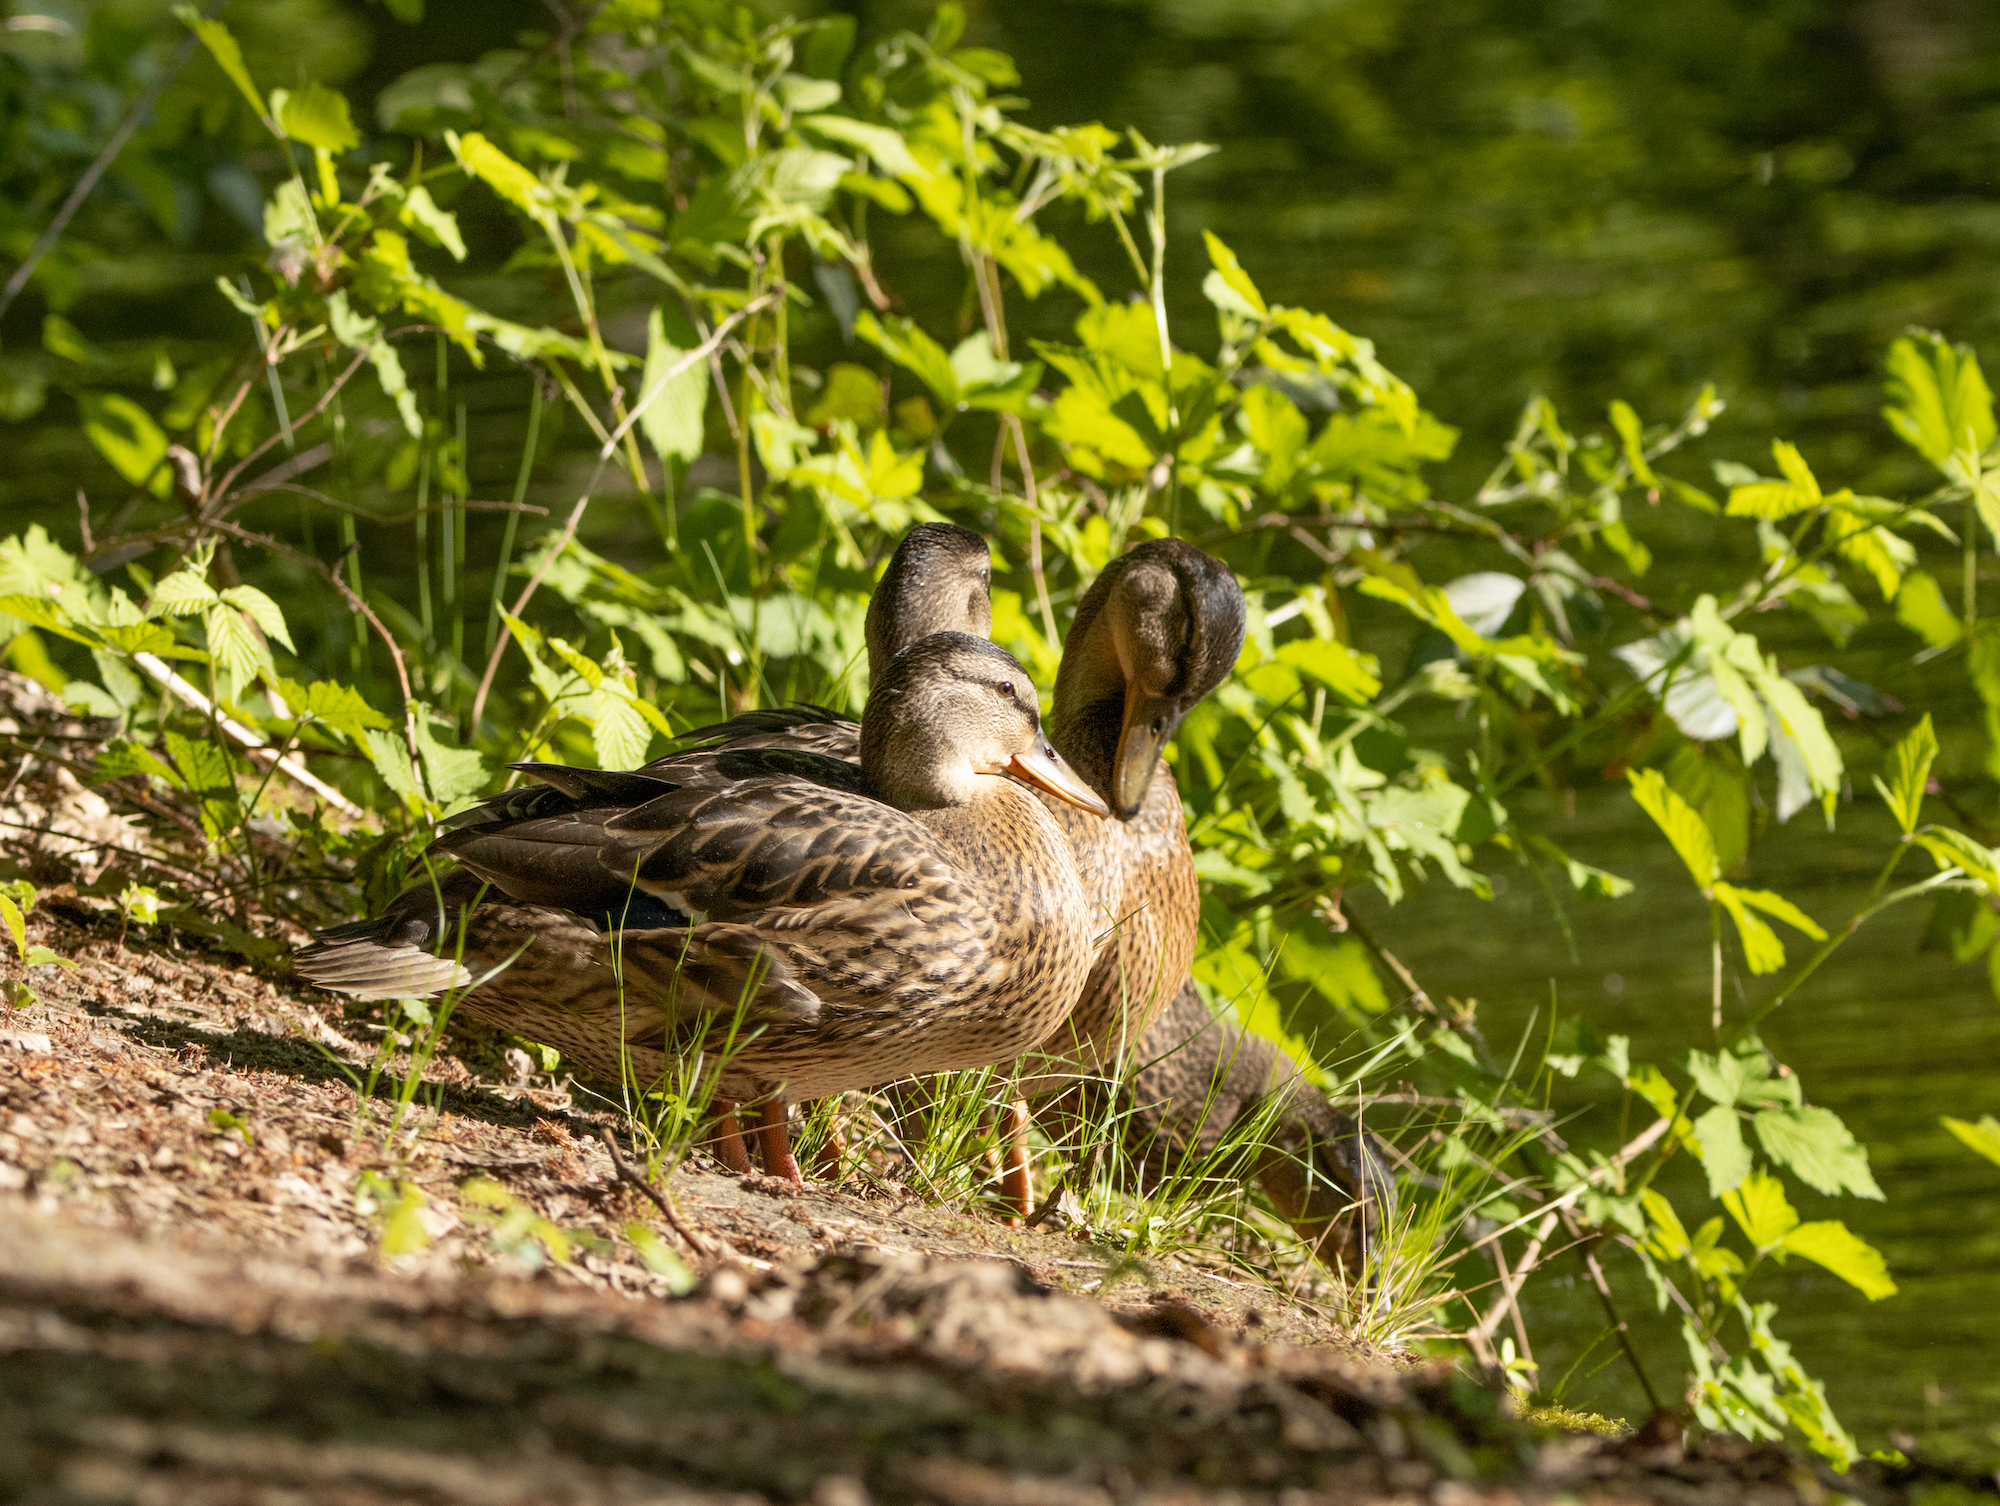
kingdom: Animalia
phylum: Chordata
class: Aves
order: Anseriformes
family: Anatidae
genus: Anas
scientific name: Anas platyrhynchos
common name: Mallard
